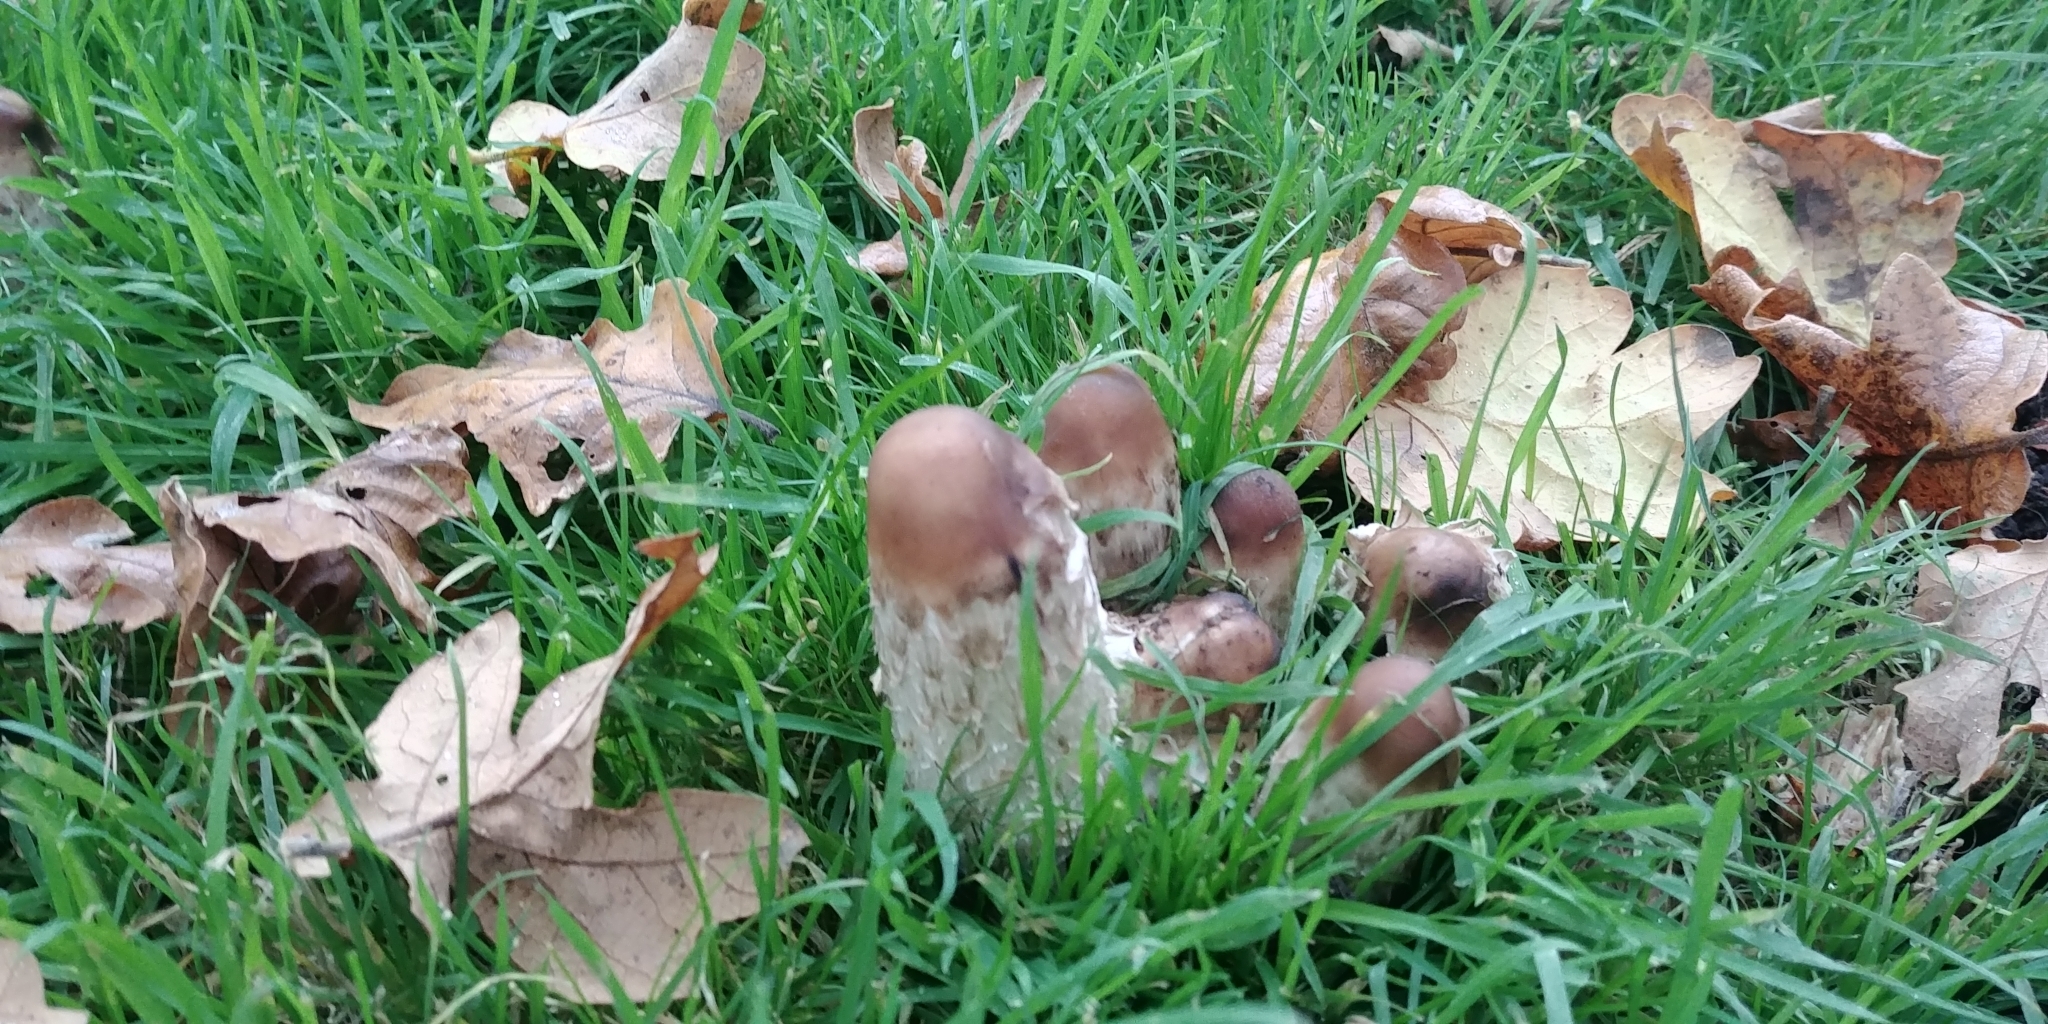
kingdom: Fungi
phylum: Basidiomycota
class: Agaricomycetes
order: Agaricales
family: Agaricaceae
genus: Coprinus
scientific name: Coprinus comatus
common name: Lawyer's wig
